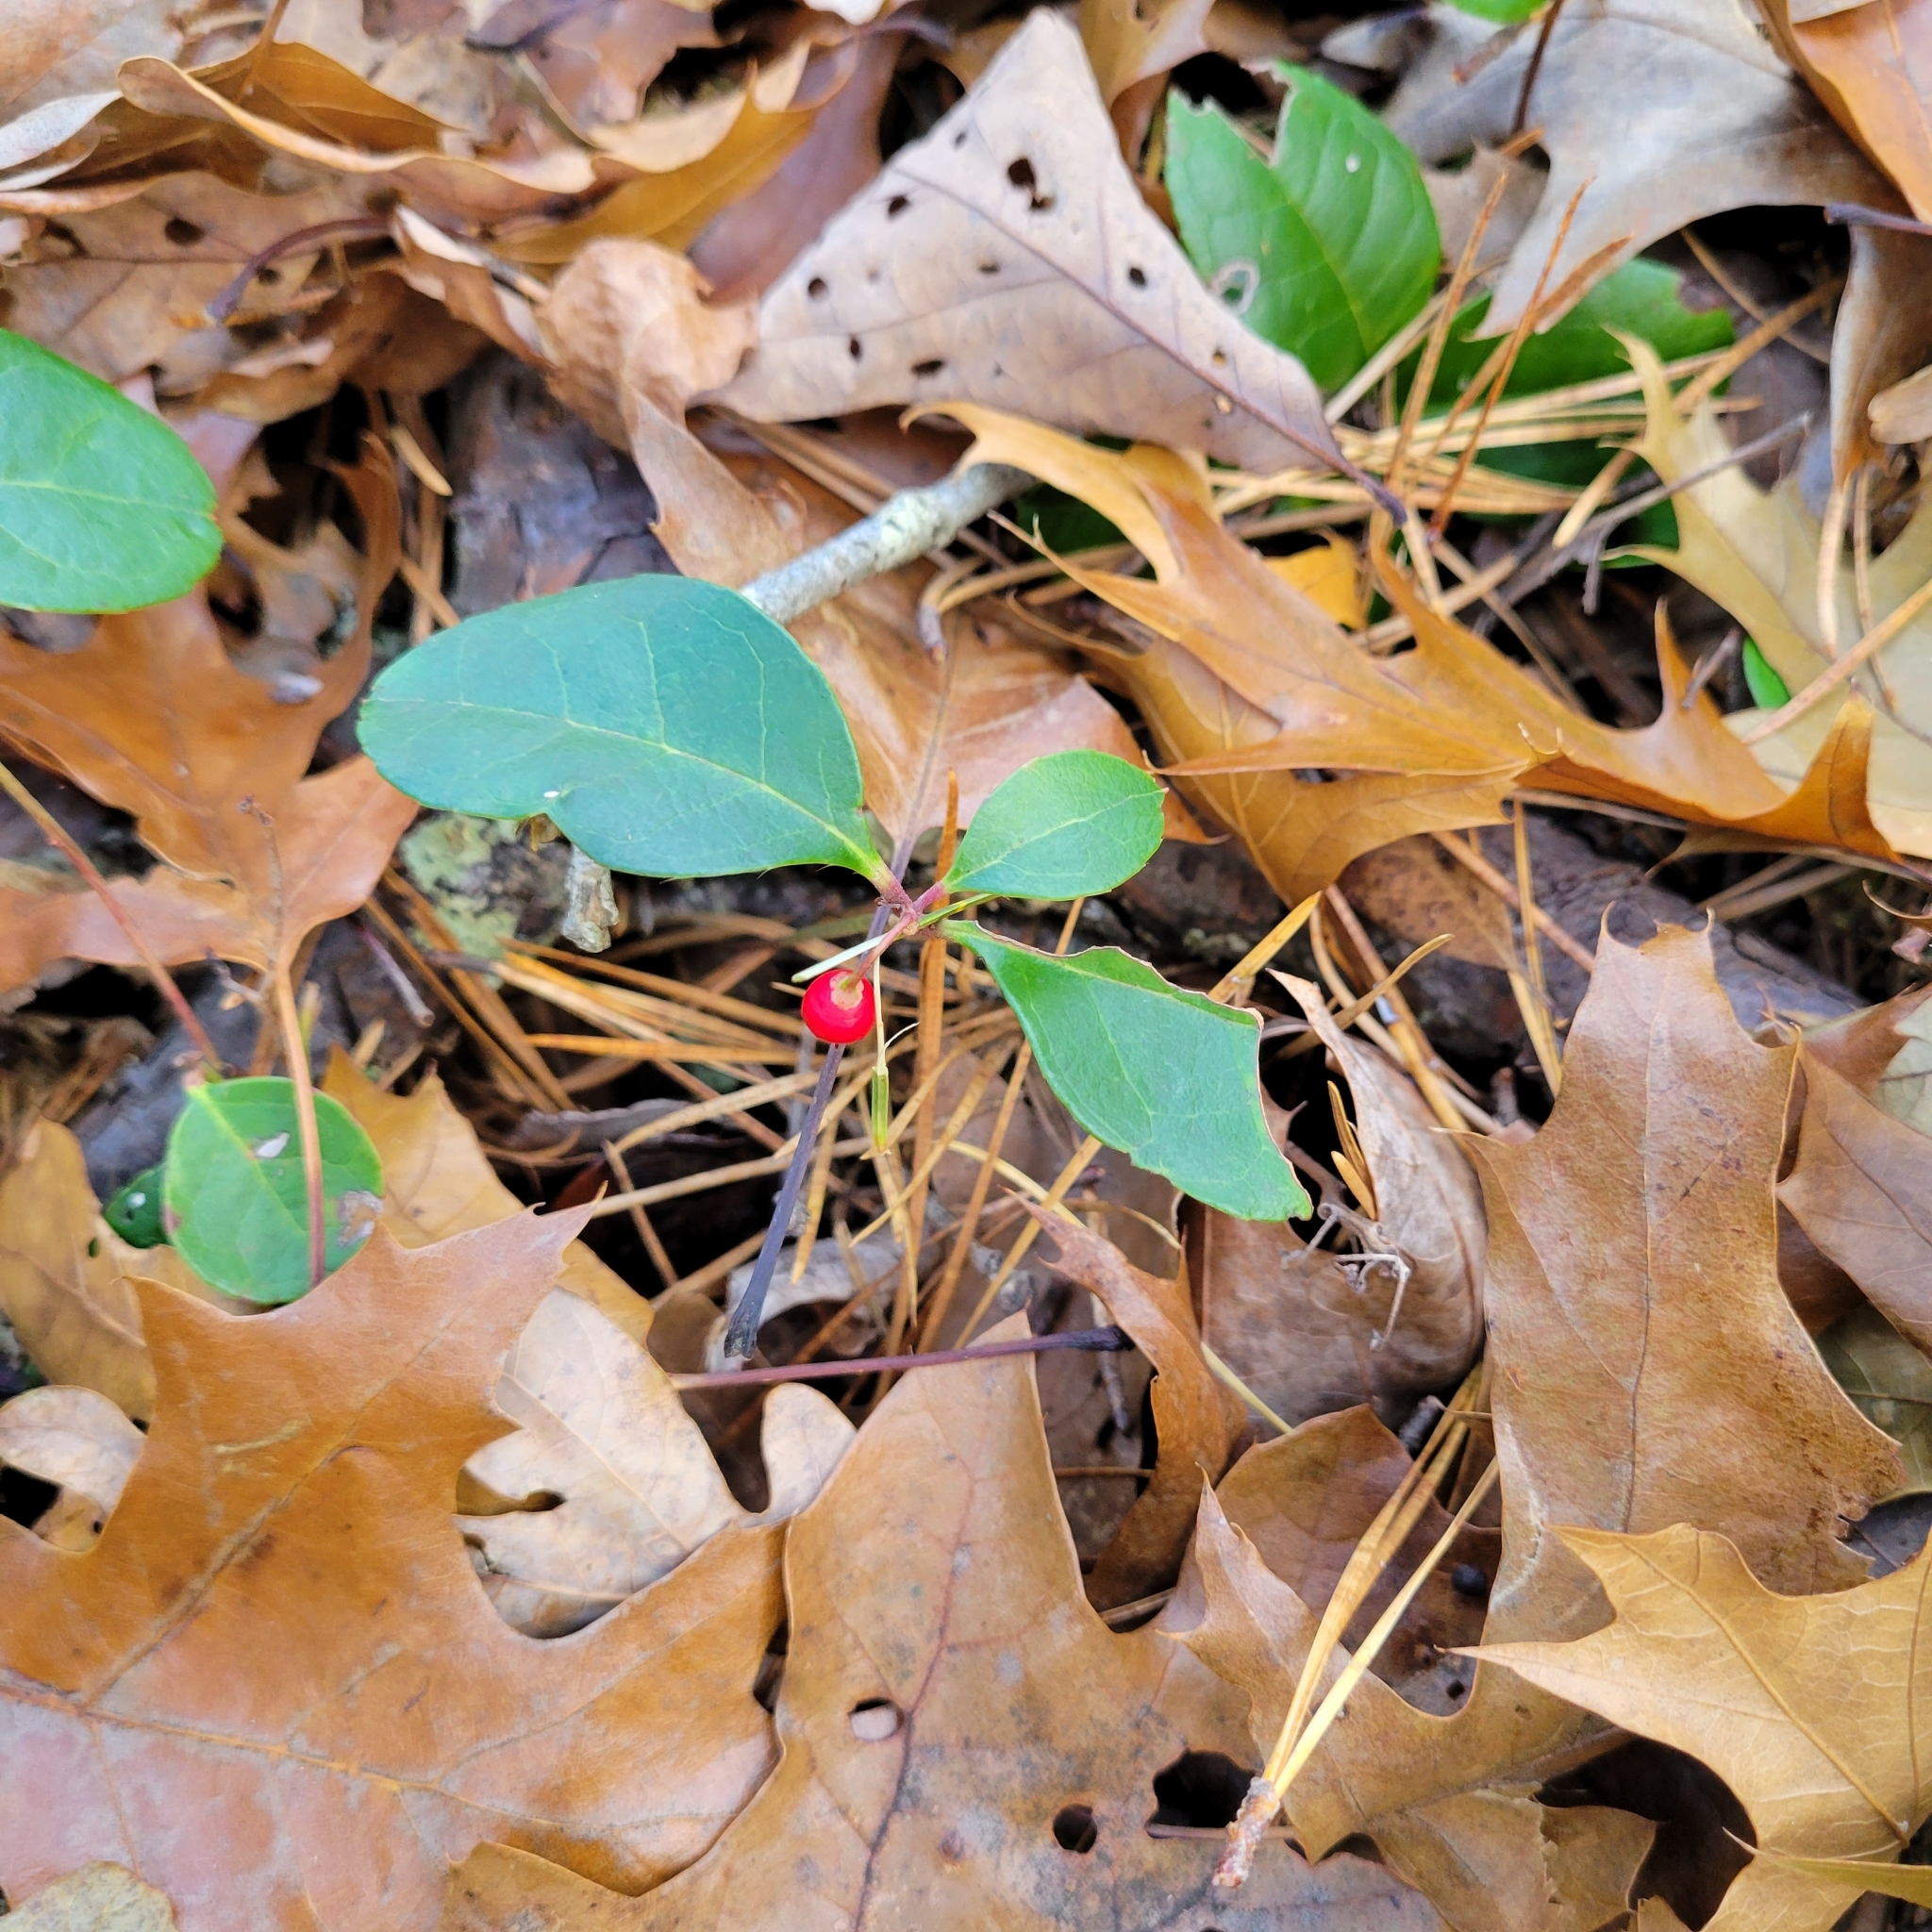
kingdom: Plantae
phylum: Tracheophyta
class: Magnoliopsida
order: Ericales
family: Ericaceae
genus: Gaultheria
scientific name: Gaultheria procumbens
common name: Checkerberry
